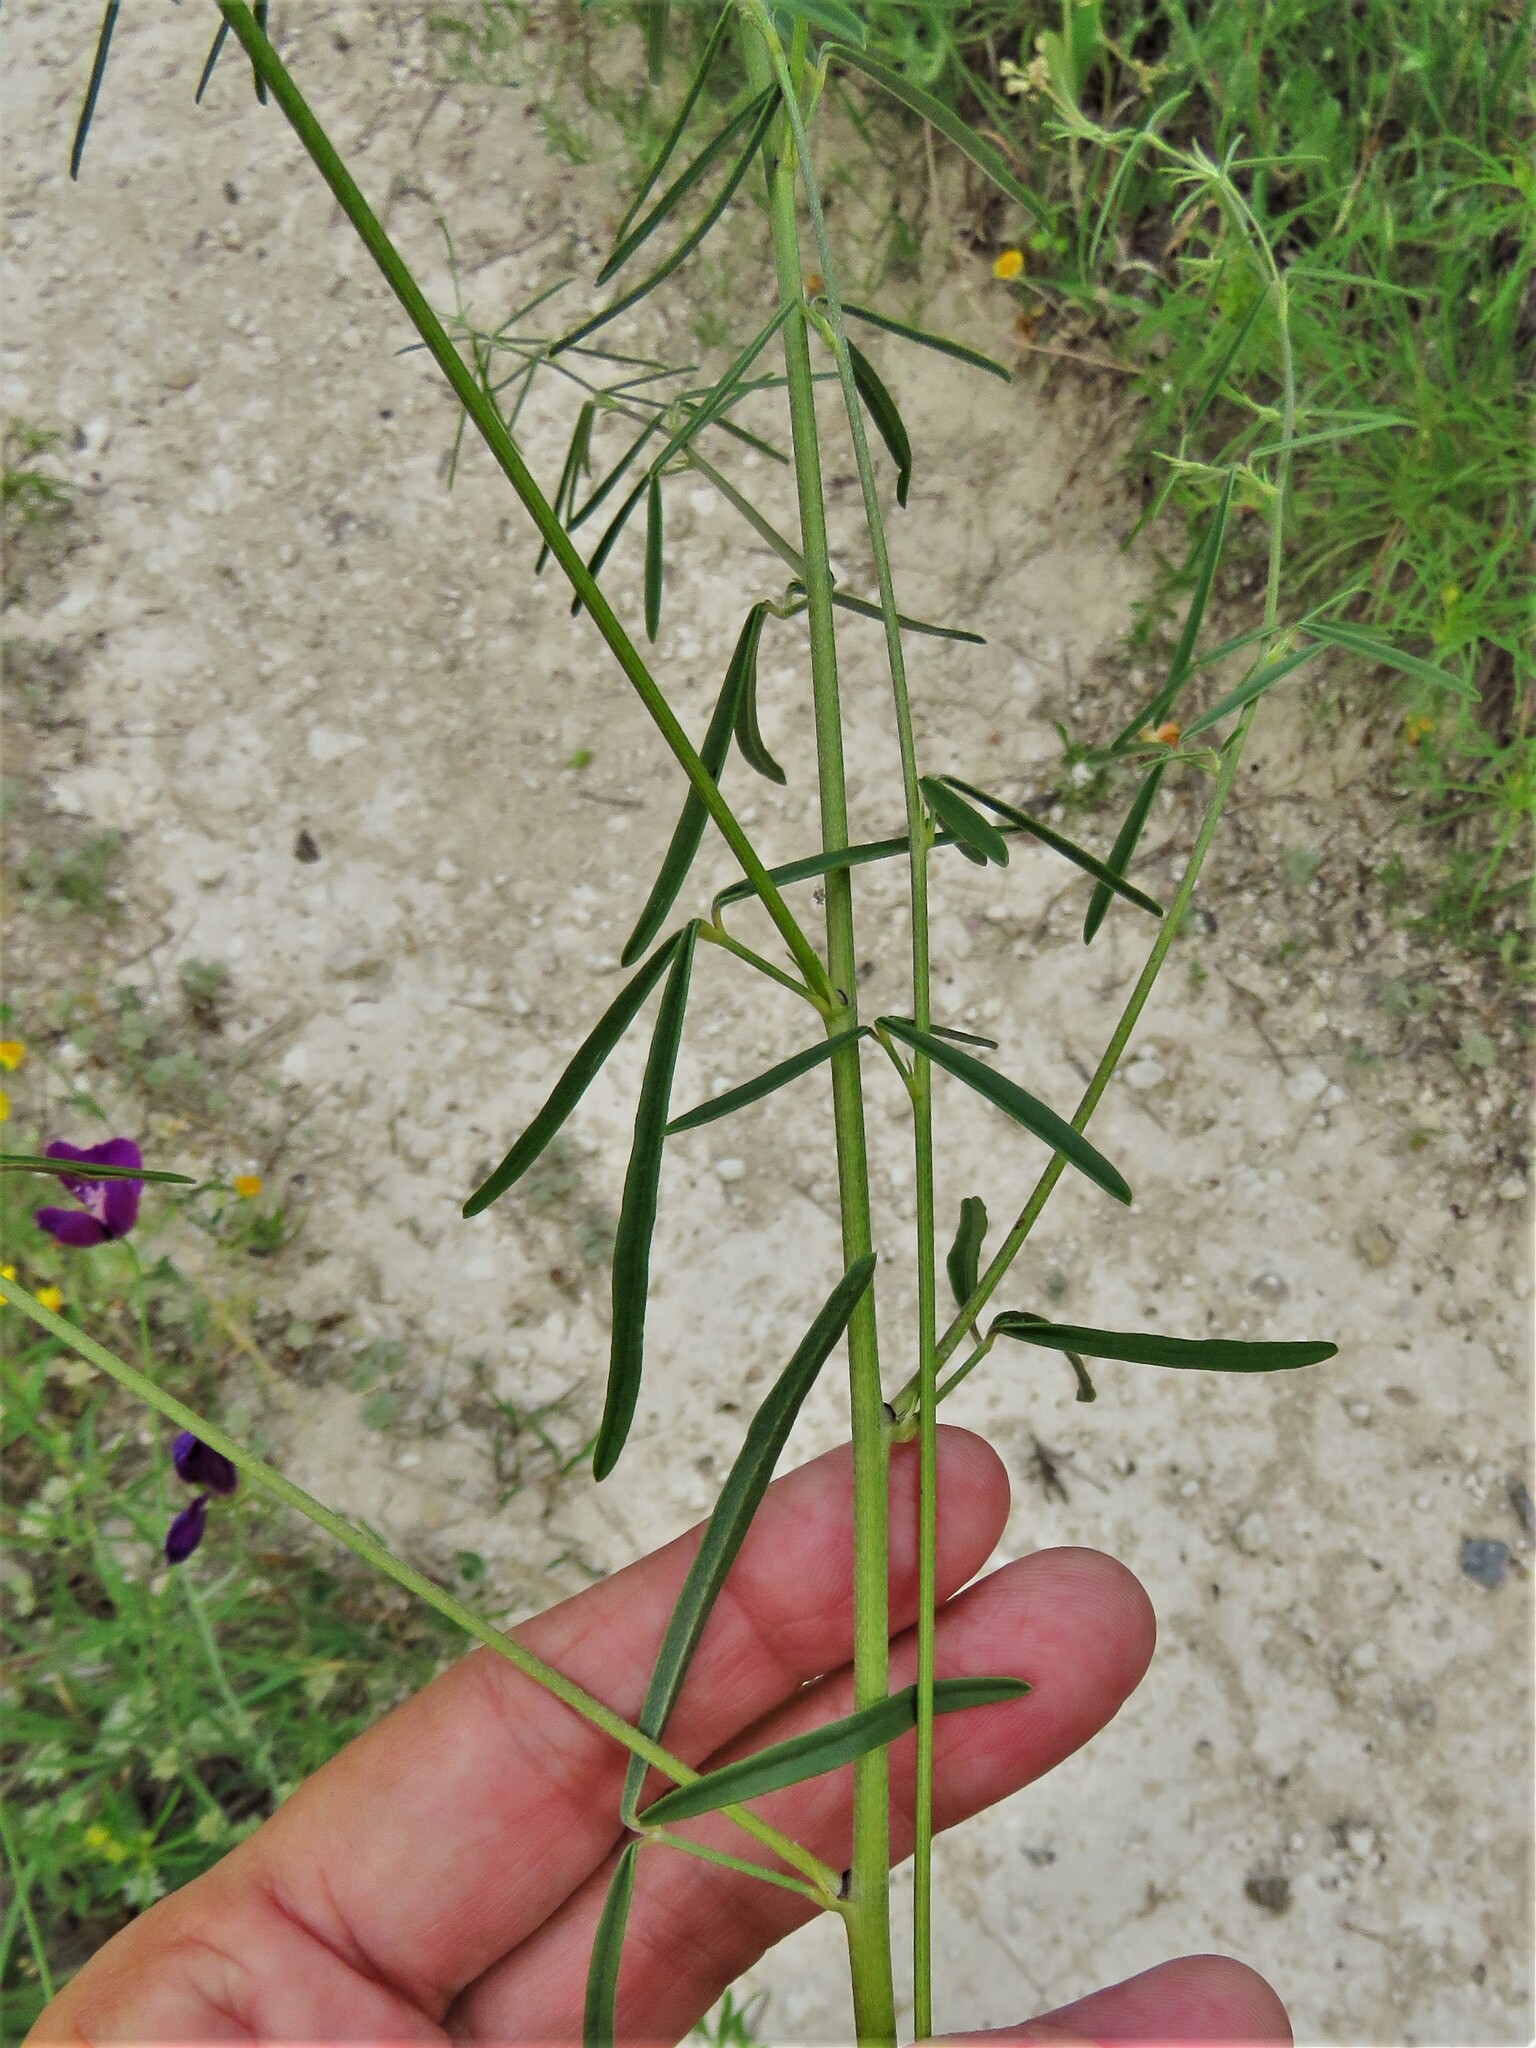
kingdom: Plantae
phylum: Tracheophyta
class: Magnoliopsida
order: Fabales
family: Fabaceae
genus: Pediomelum
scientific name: Pediomelum linearifolium
